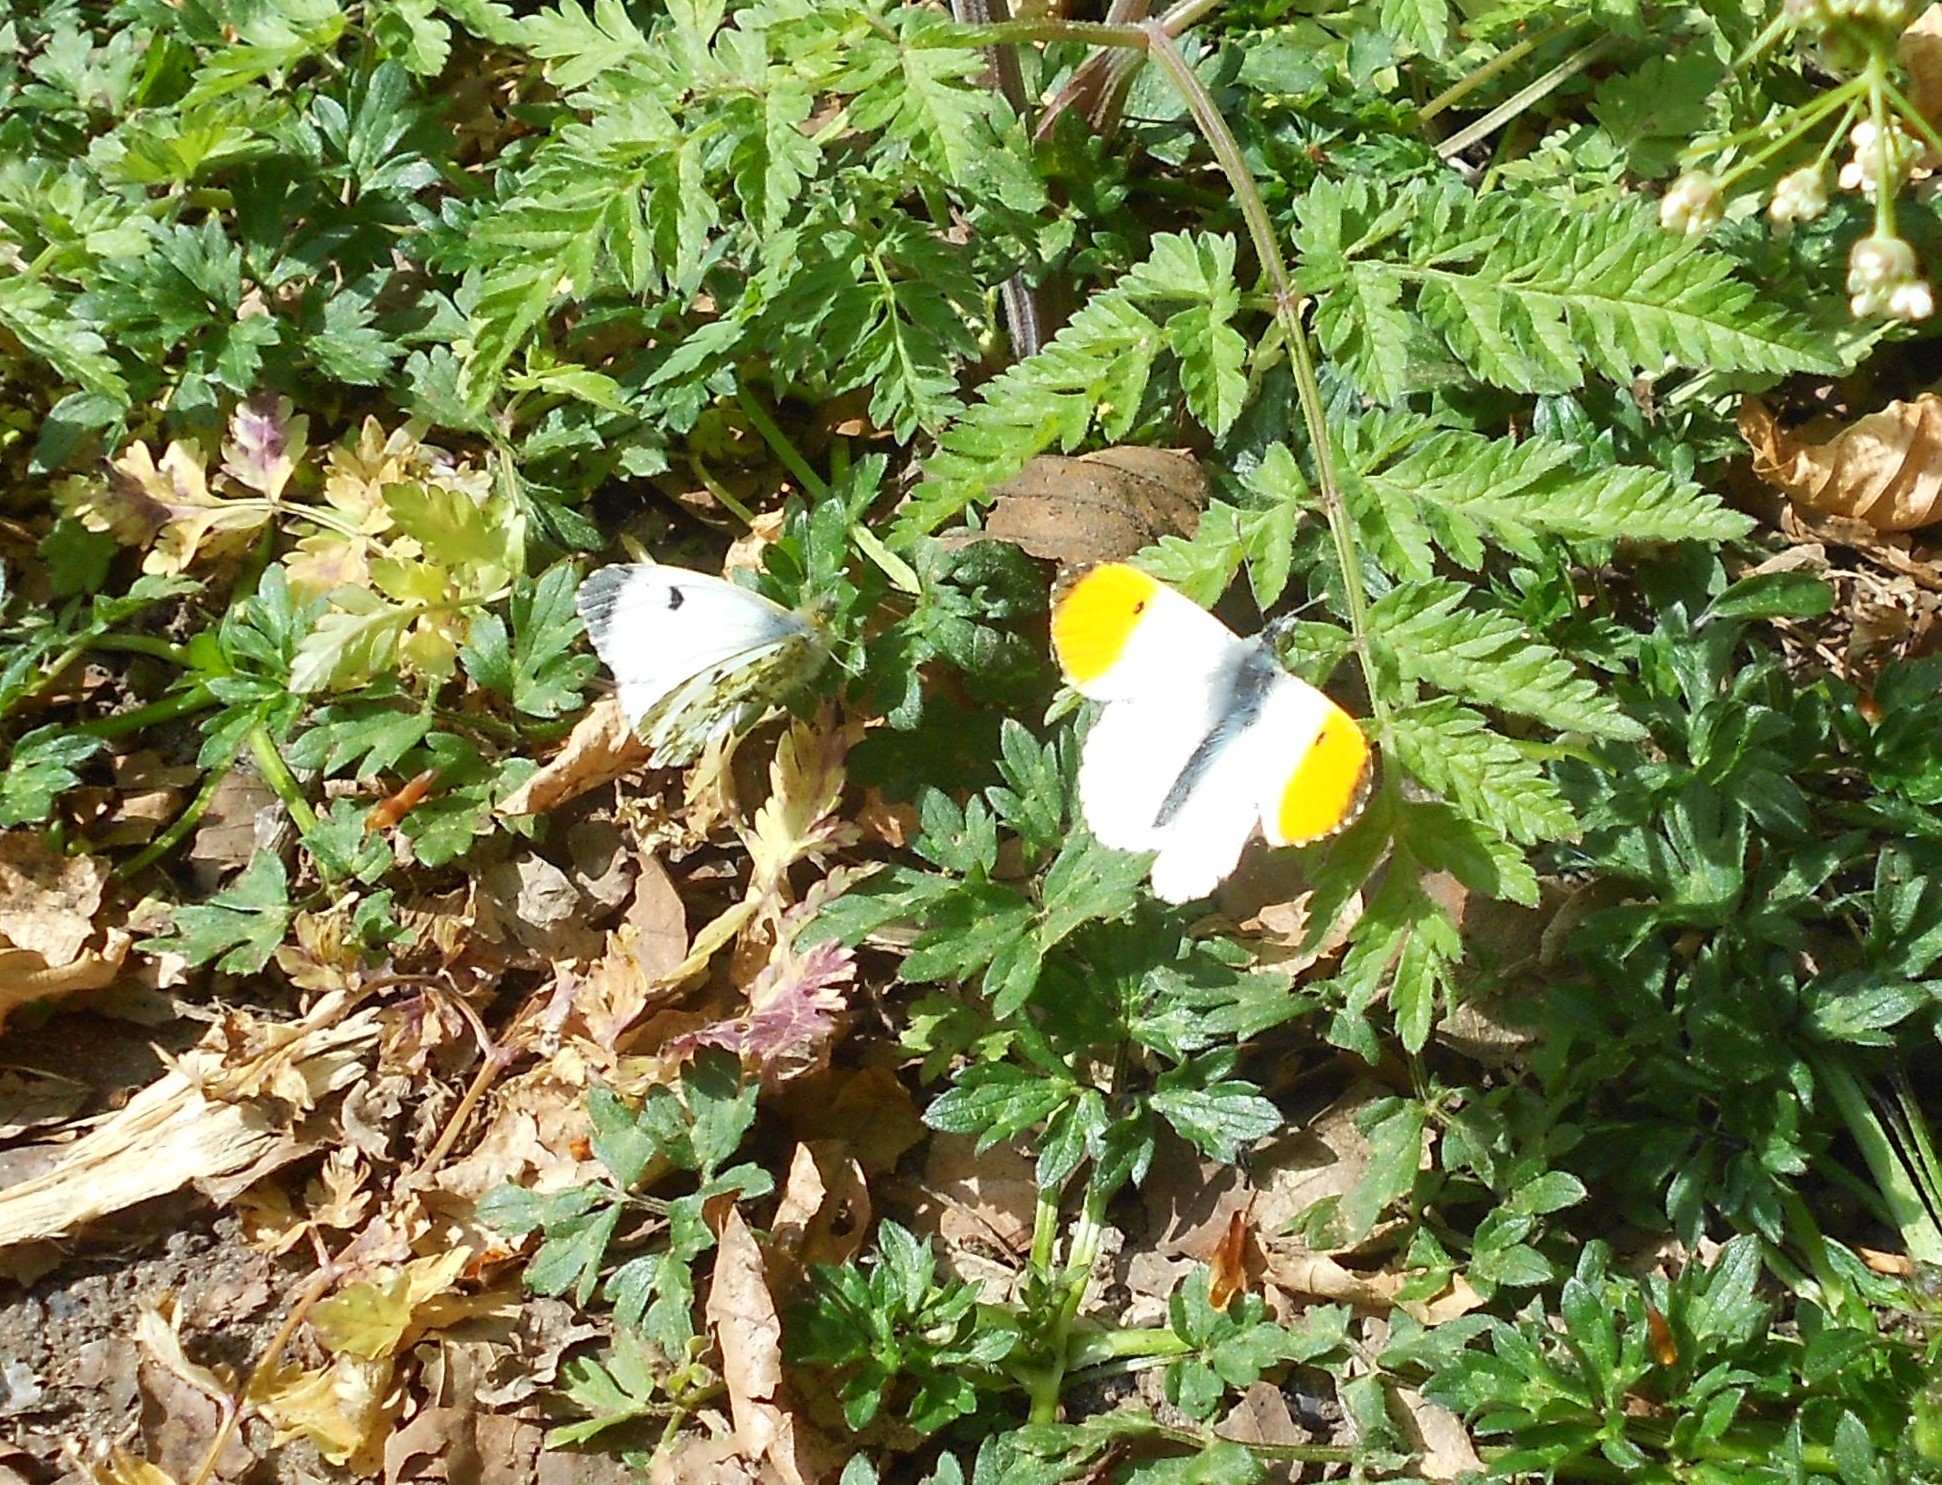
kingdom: Animalia
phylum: Arthropoda
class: Insecta
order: Lepidoptera
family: Pieridae
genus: Anthocharis
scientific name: Anthocharis cardamines
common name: Orange-tip
